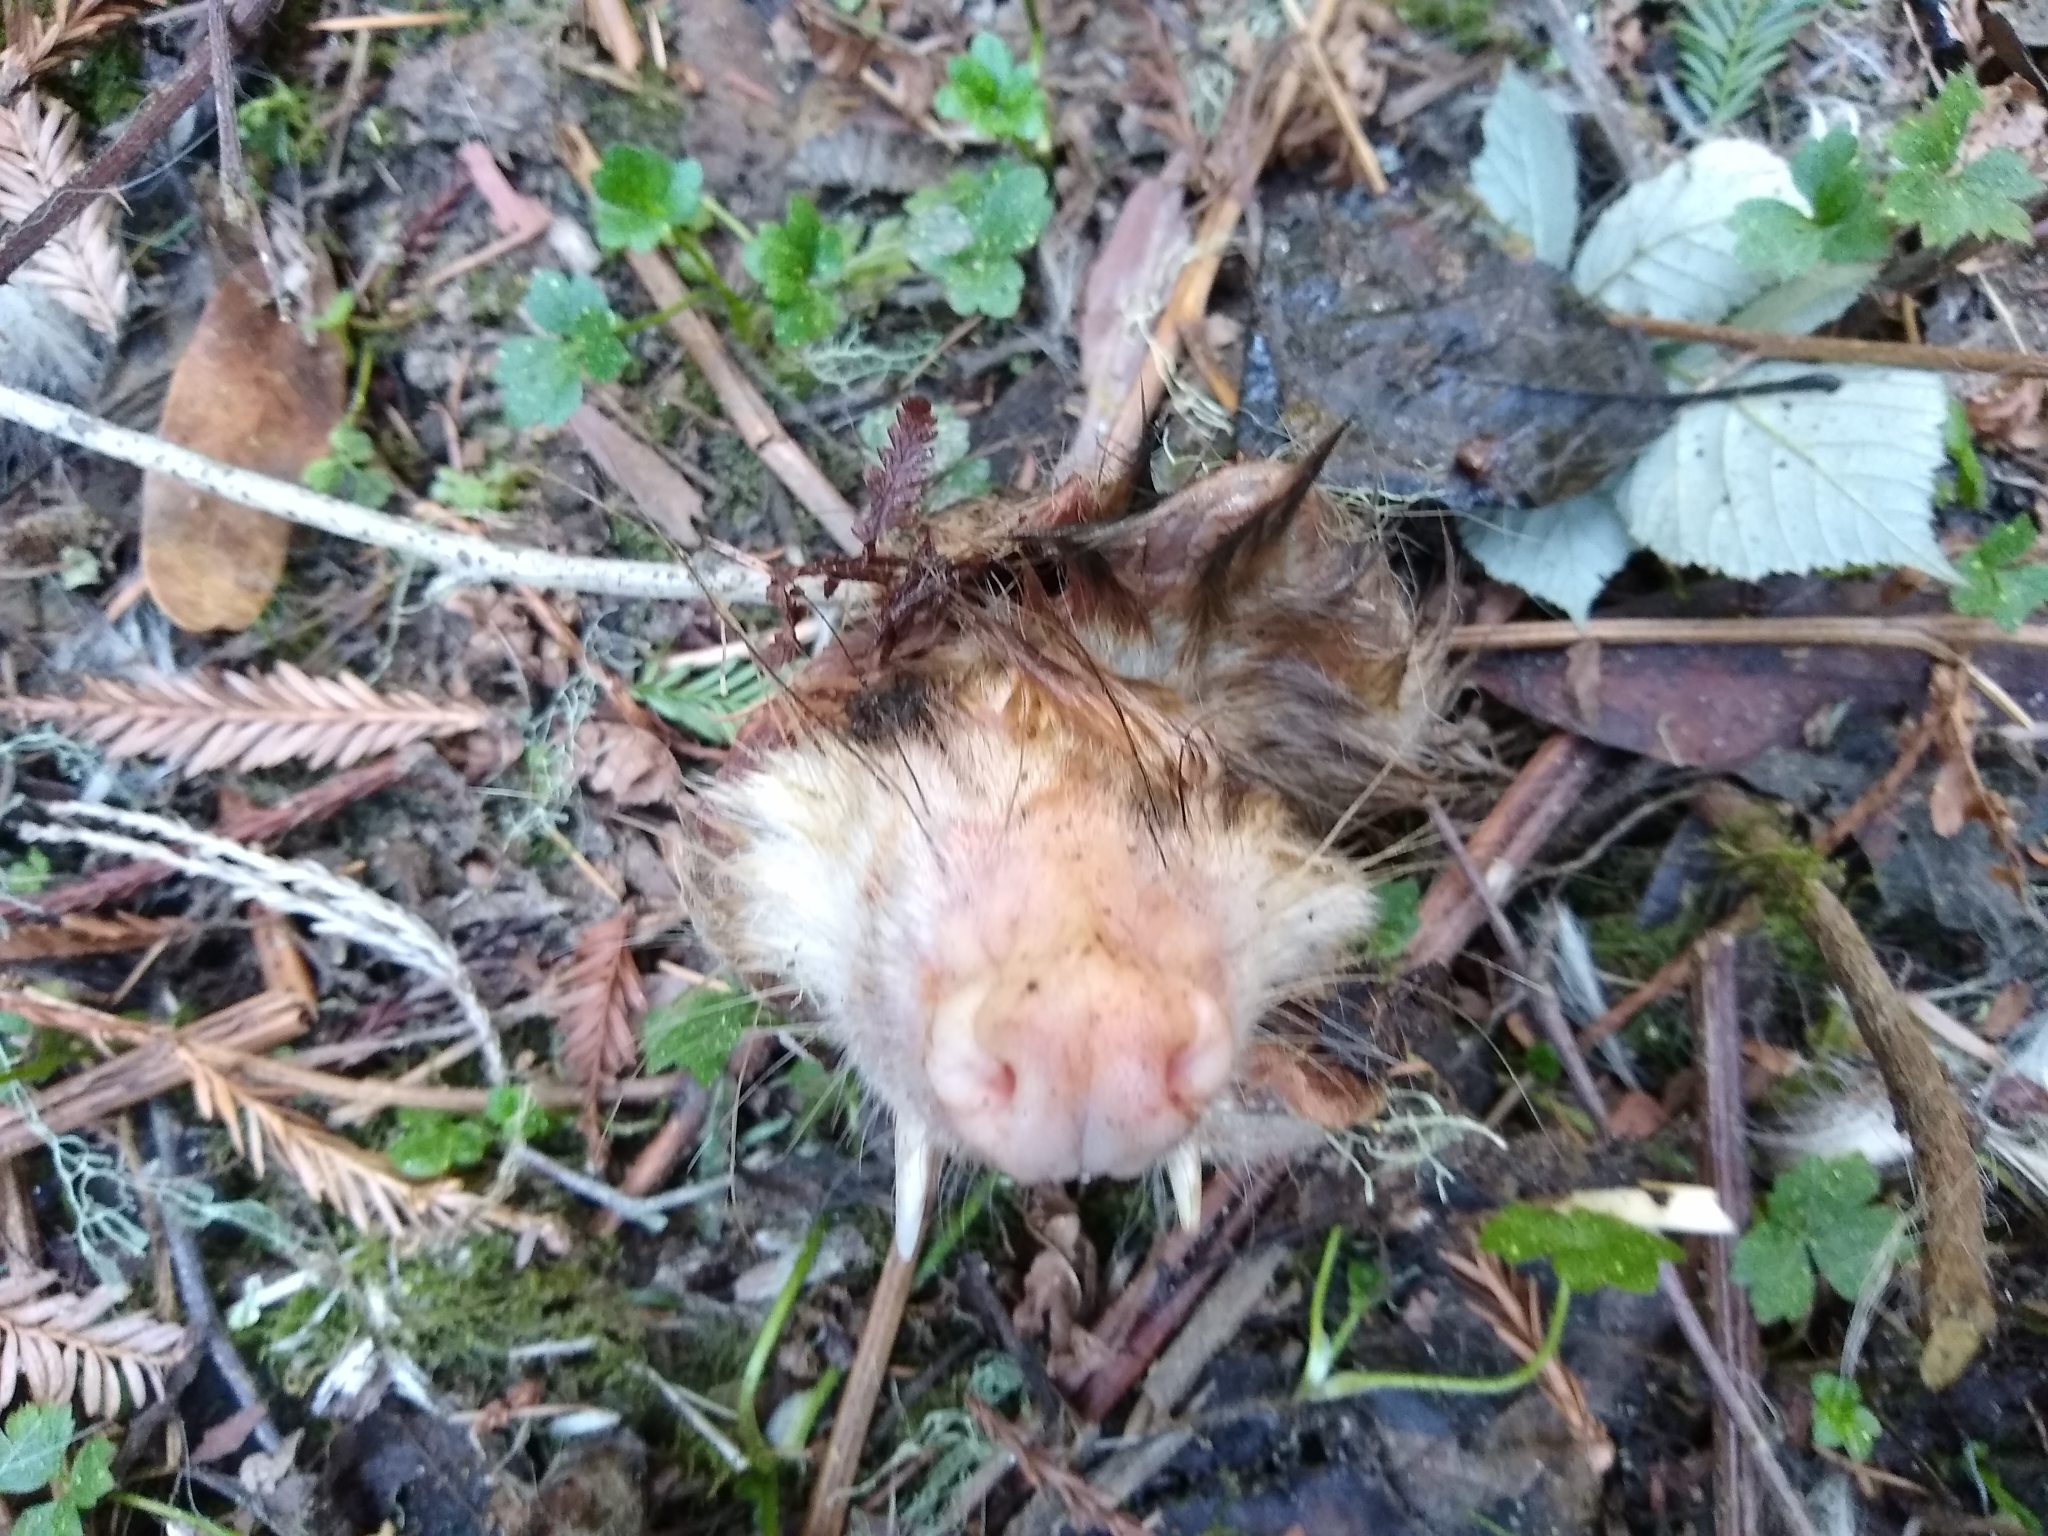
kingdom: Animalia
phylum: Chordata
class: Mammalia
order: Didelphimorphia
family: Didelphidae
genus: Didelphis
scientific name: Didelphis virginiana
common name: Virginia opossum
